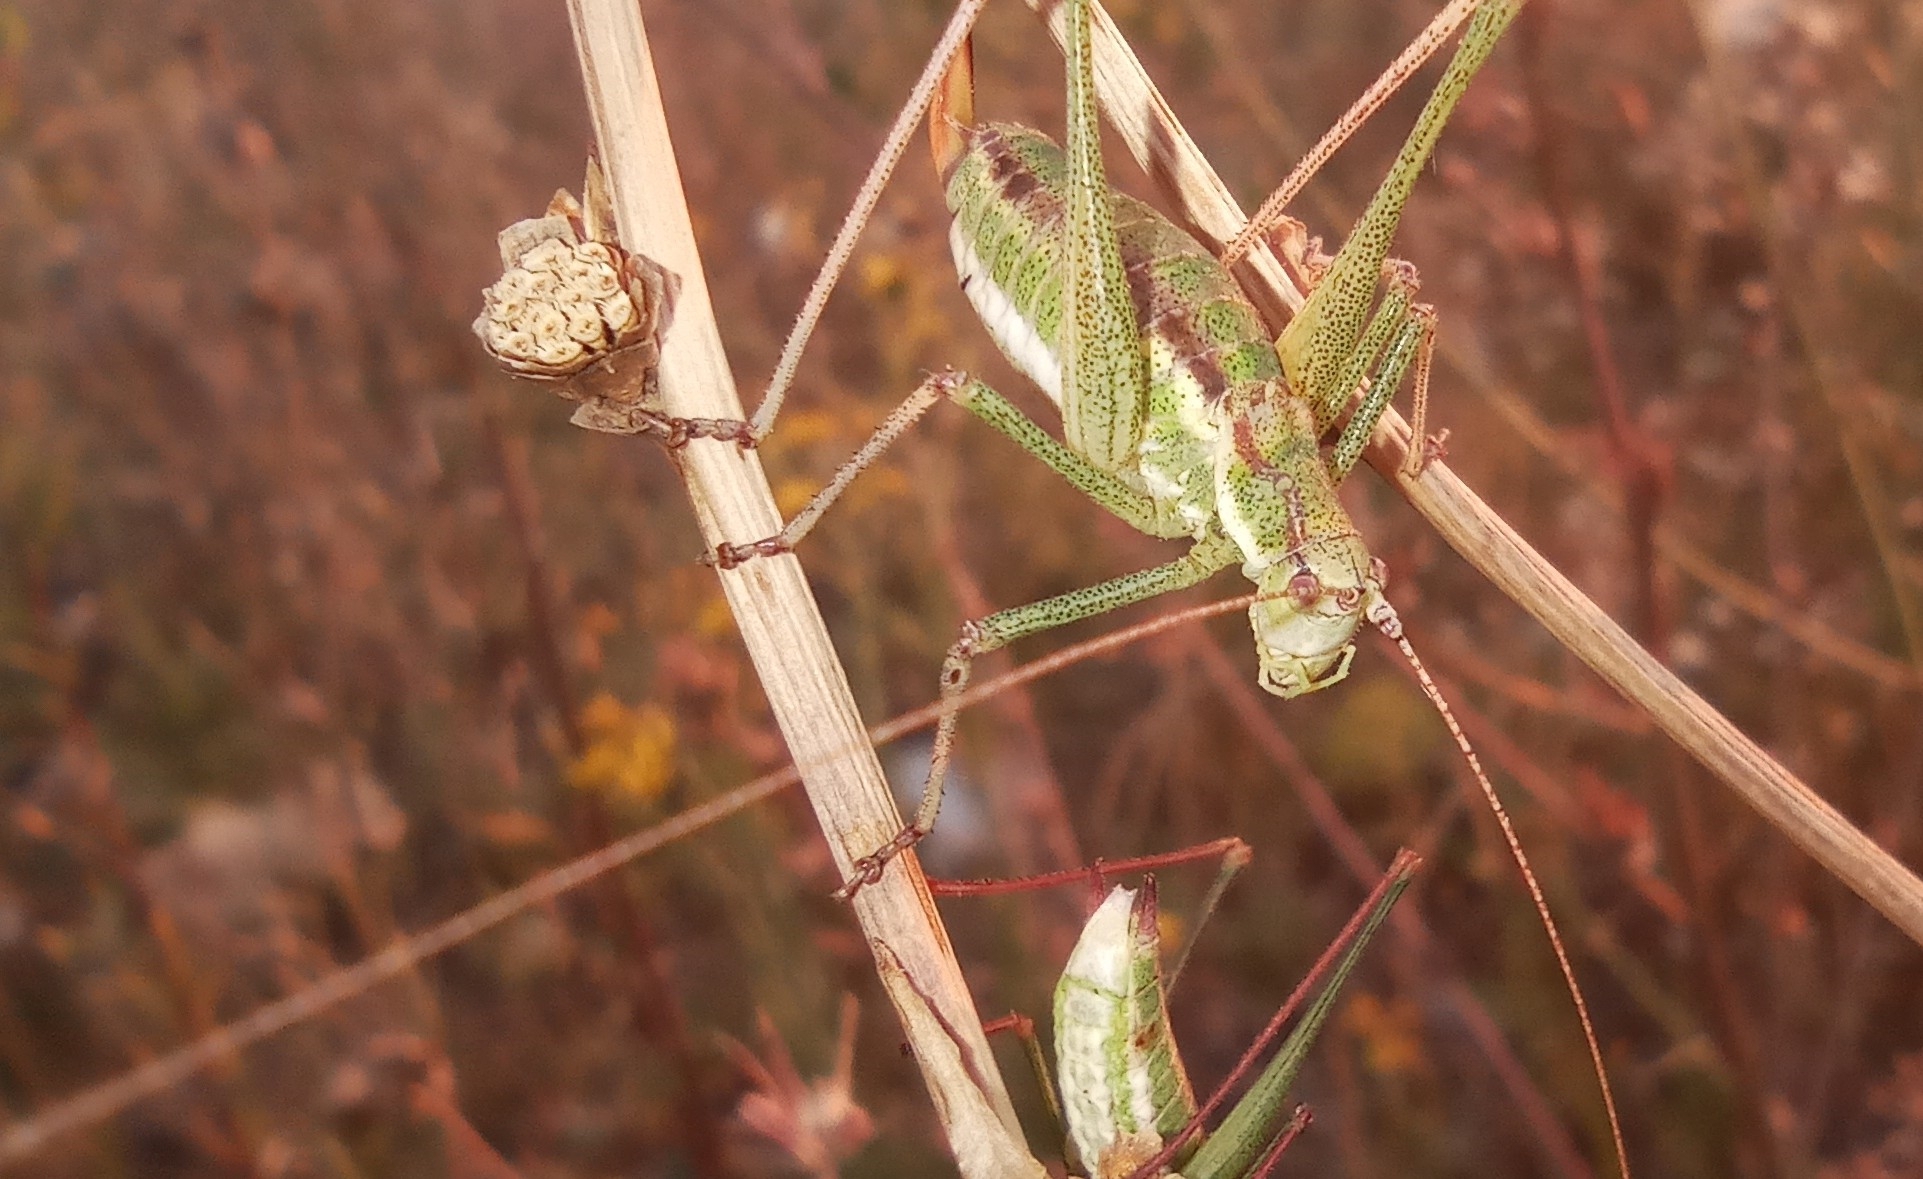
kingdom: Animalia
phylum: Arthropoda
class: Insecta
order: Orthoptera
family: Tettigoniidae
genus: Leptophyes
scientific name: Leptophyes albovittata
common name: Striped bush-cricket
